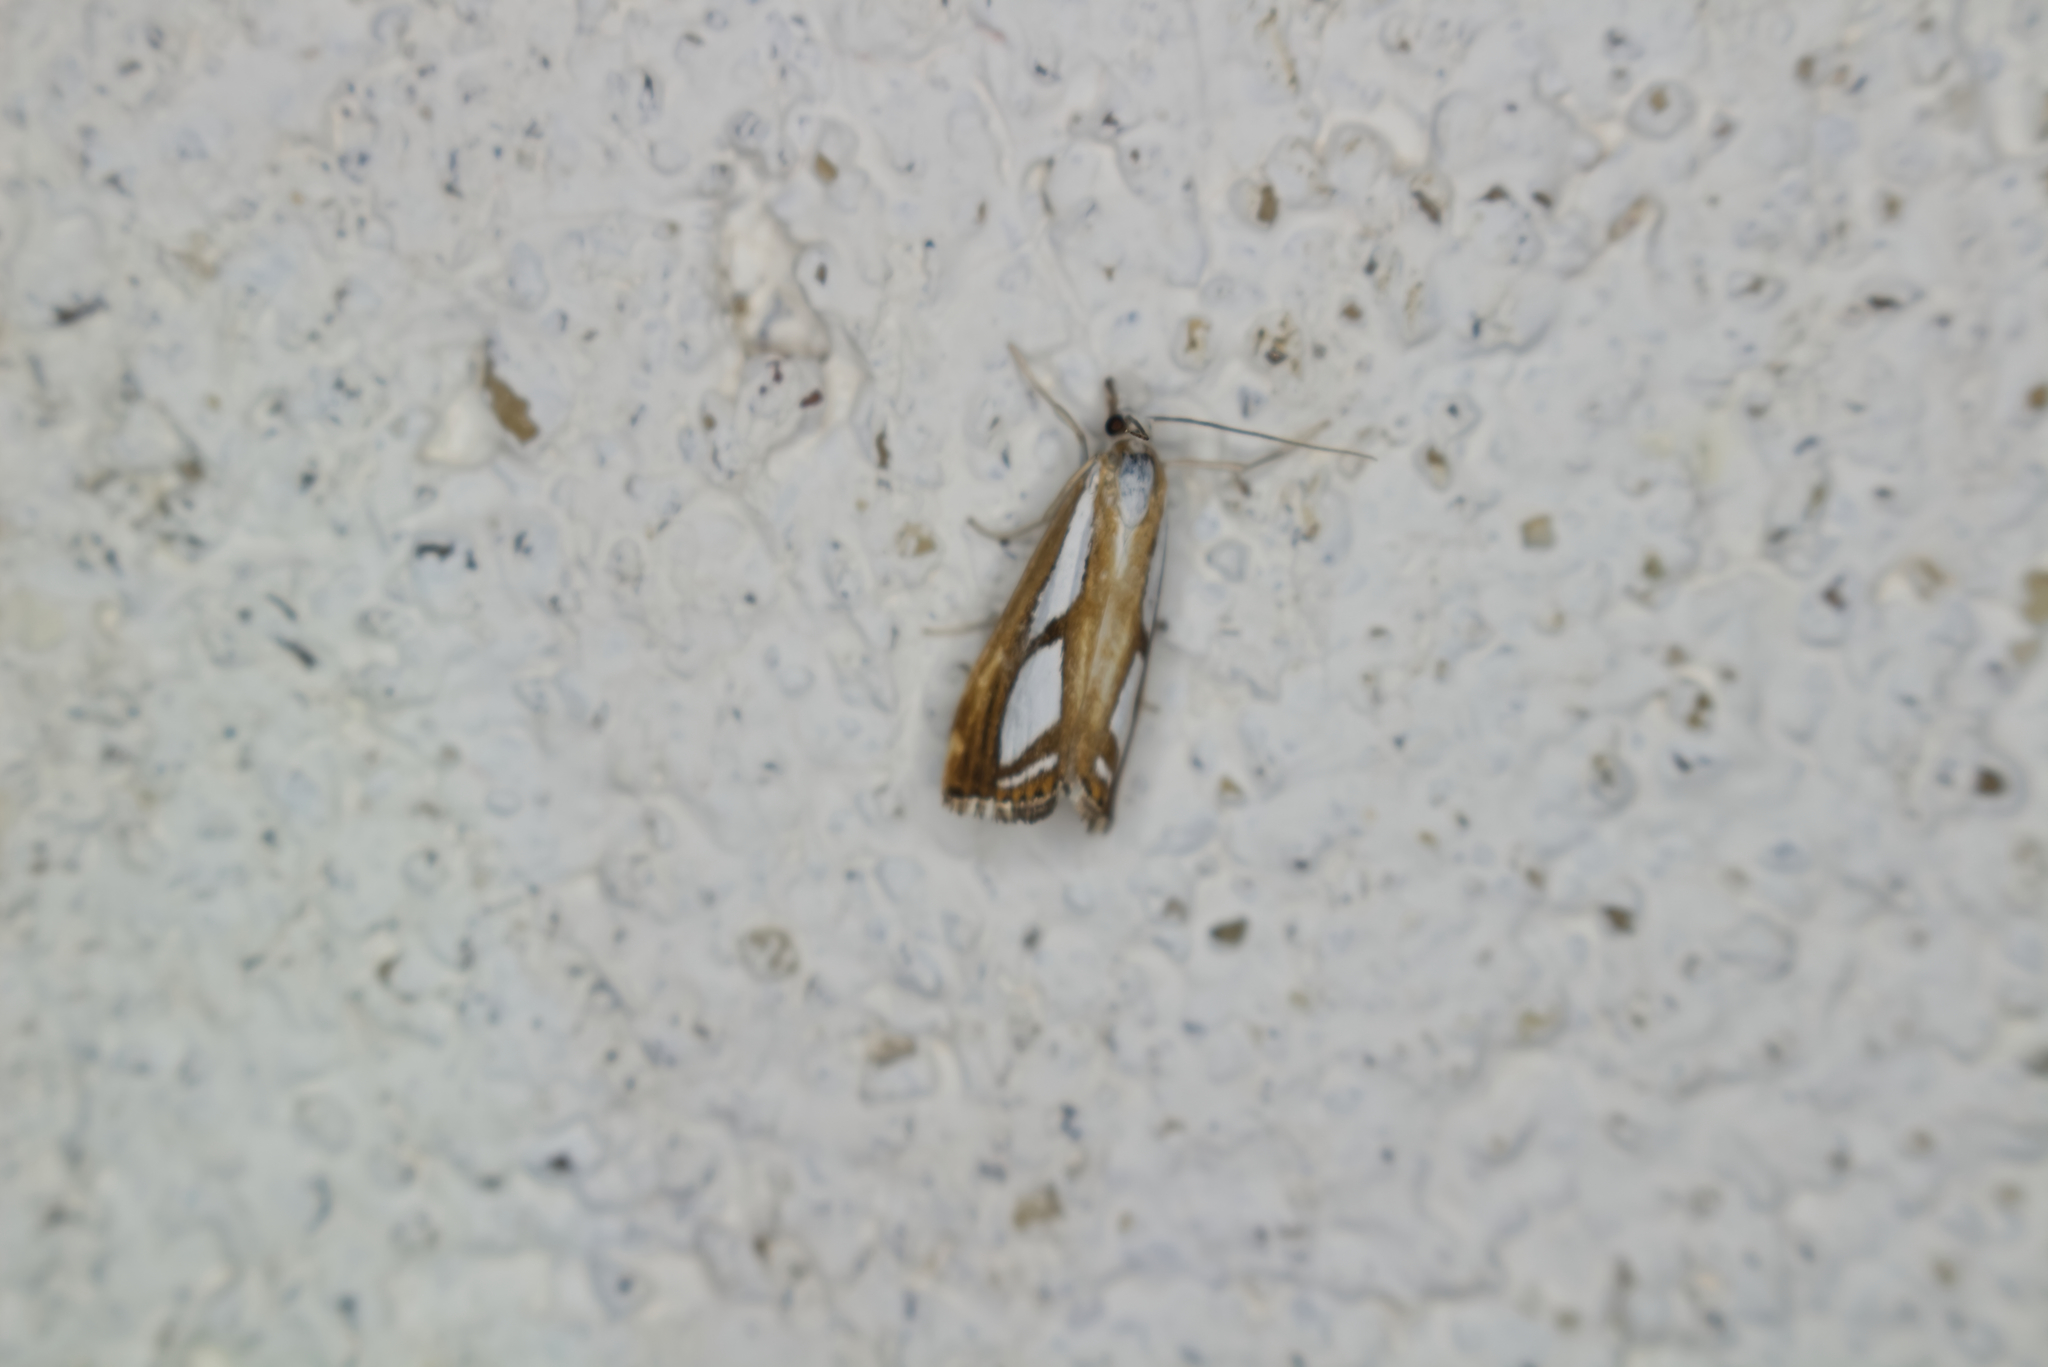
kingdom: Animalia
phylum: Arthropoda
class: Insecta
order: Lepidoptera
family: Crambidae
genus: Catoptria
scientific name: Catoptria
